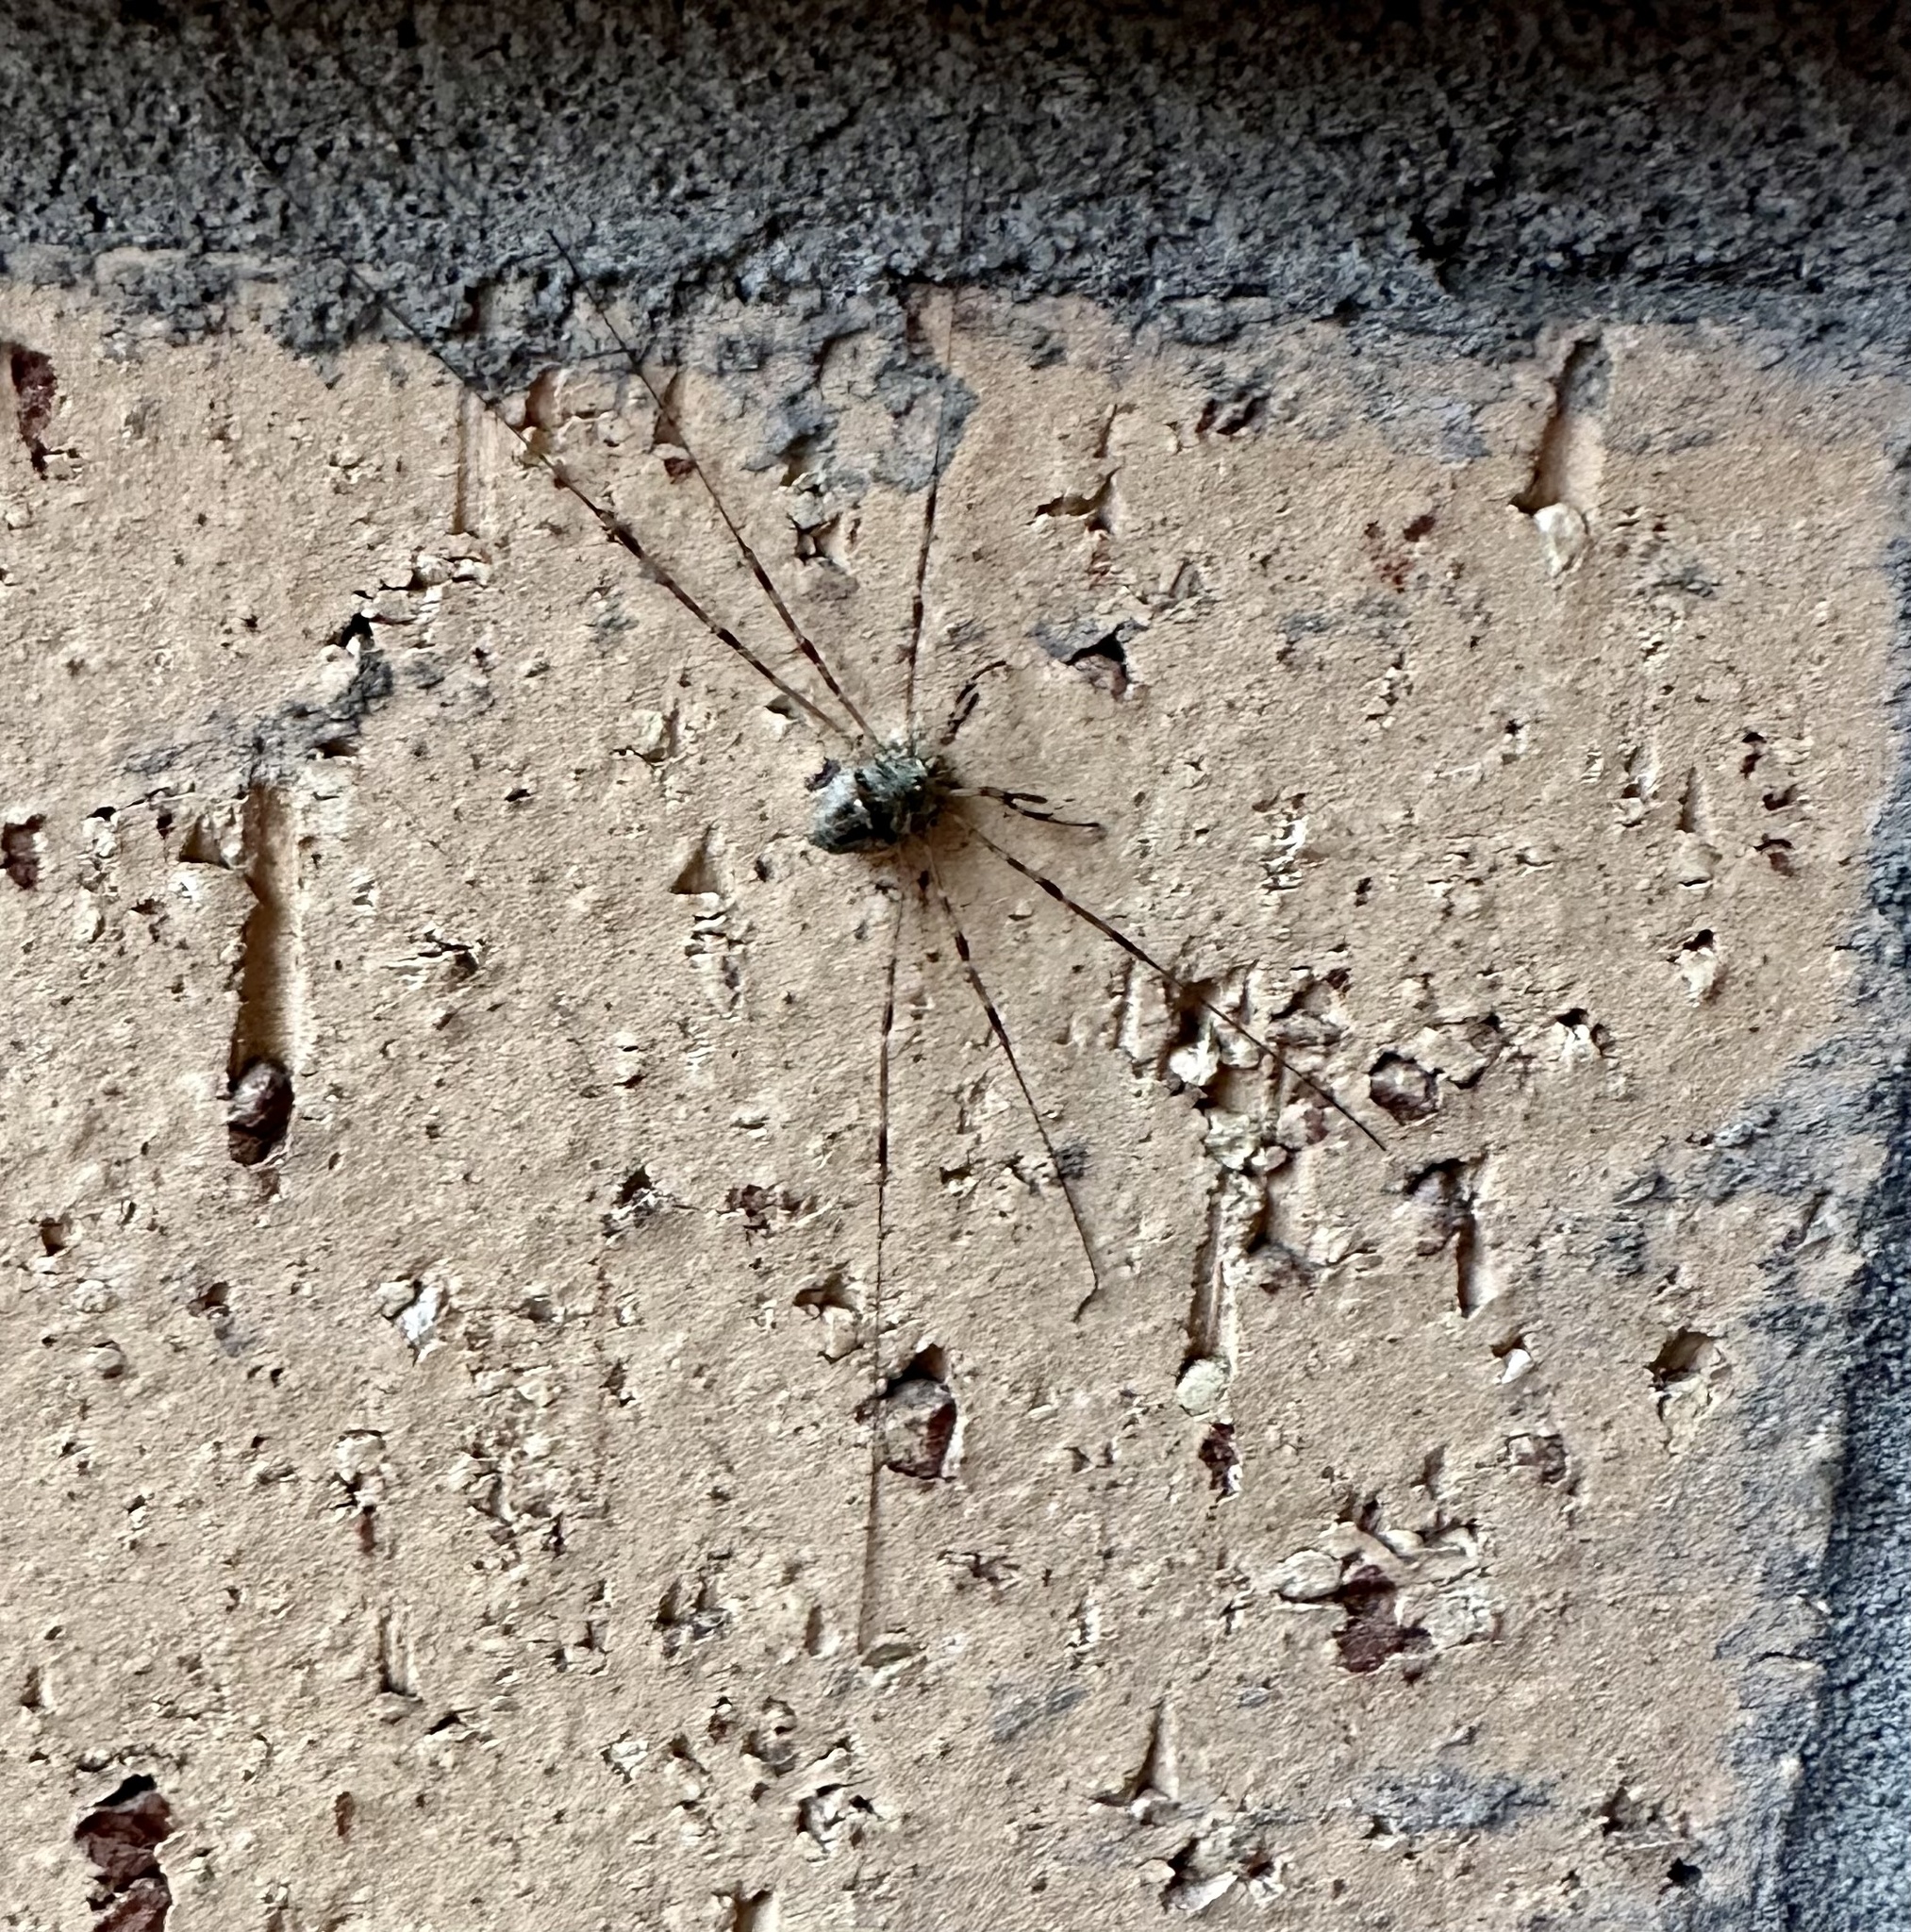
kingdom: Animalia
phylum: Arthropoda
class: Arachnida
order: Opiliones
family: Phalangiidae
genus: Dicranopalpus
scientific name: Dicranopalpus ramosus
